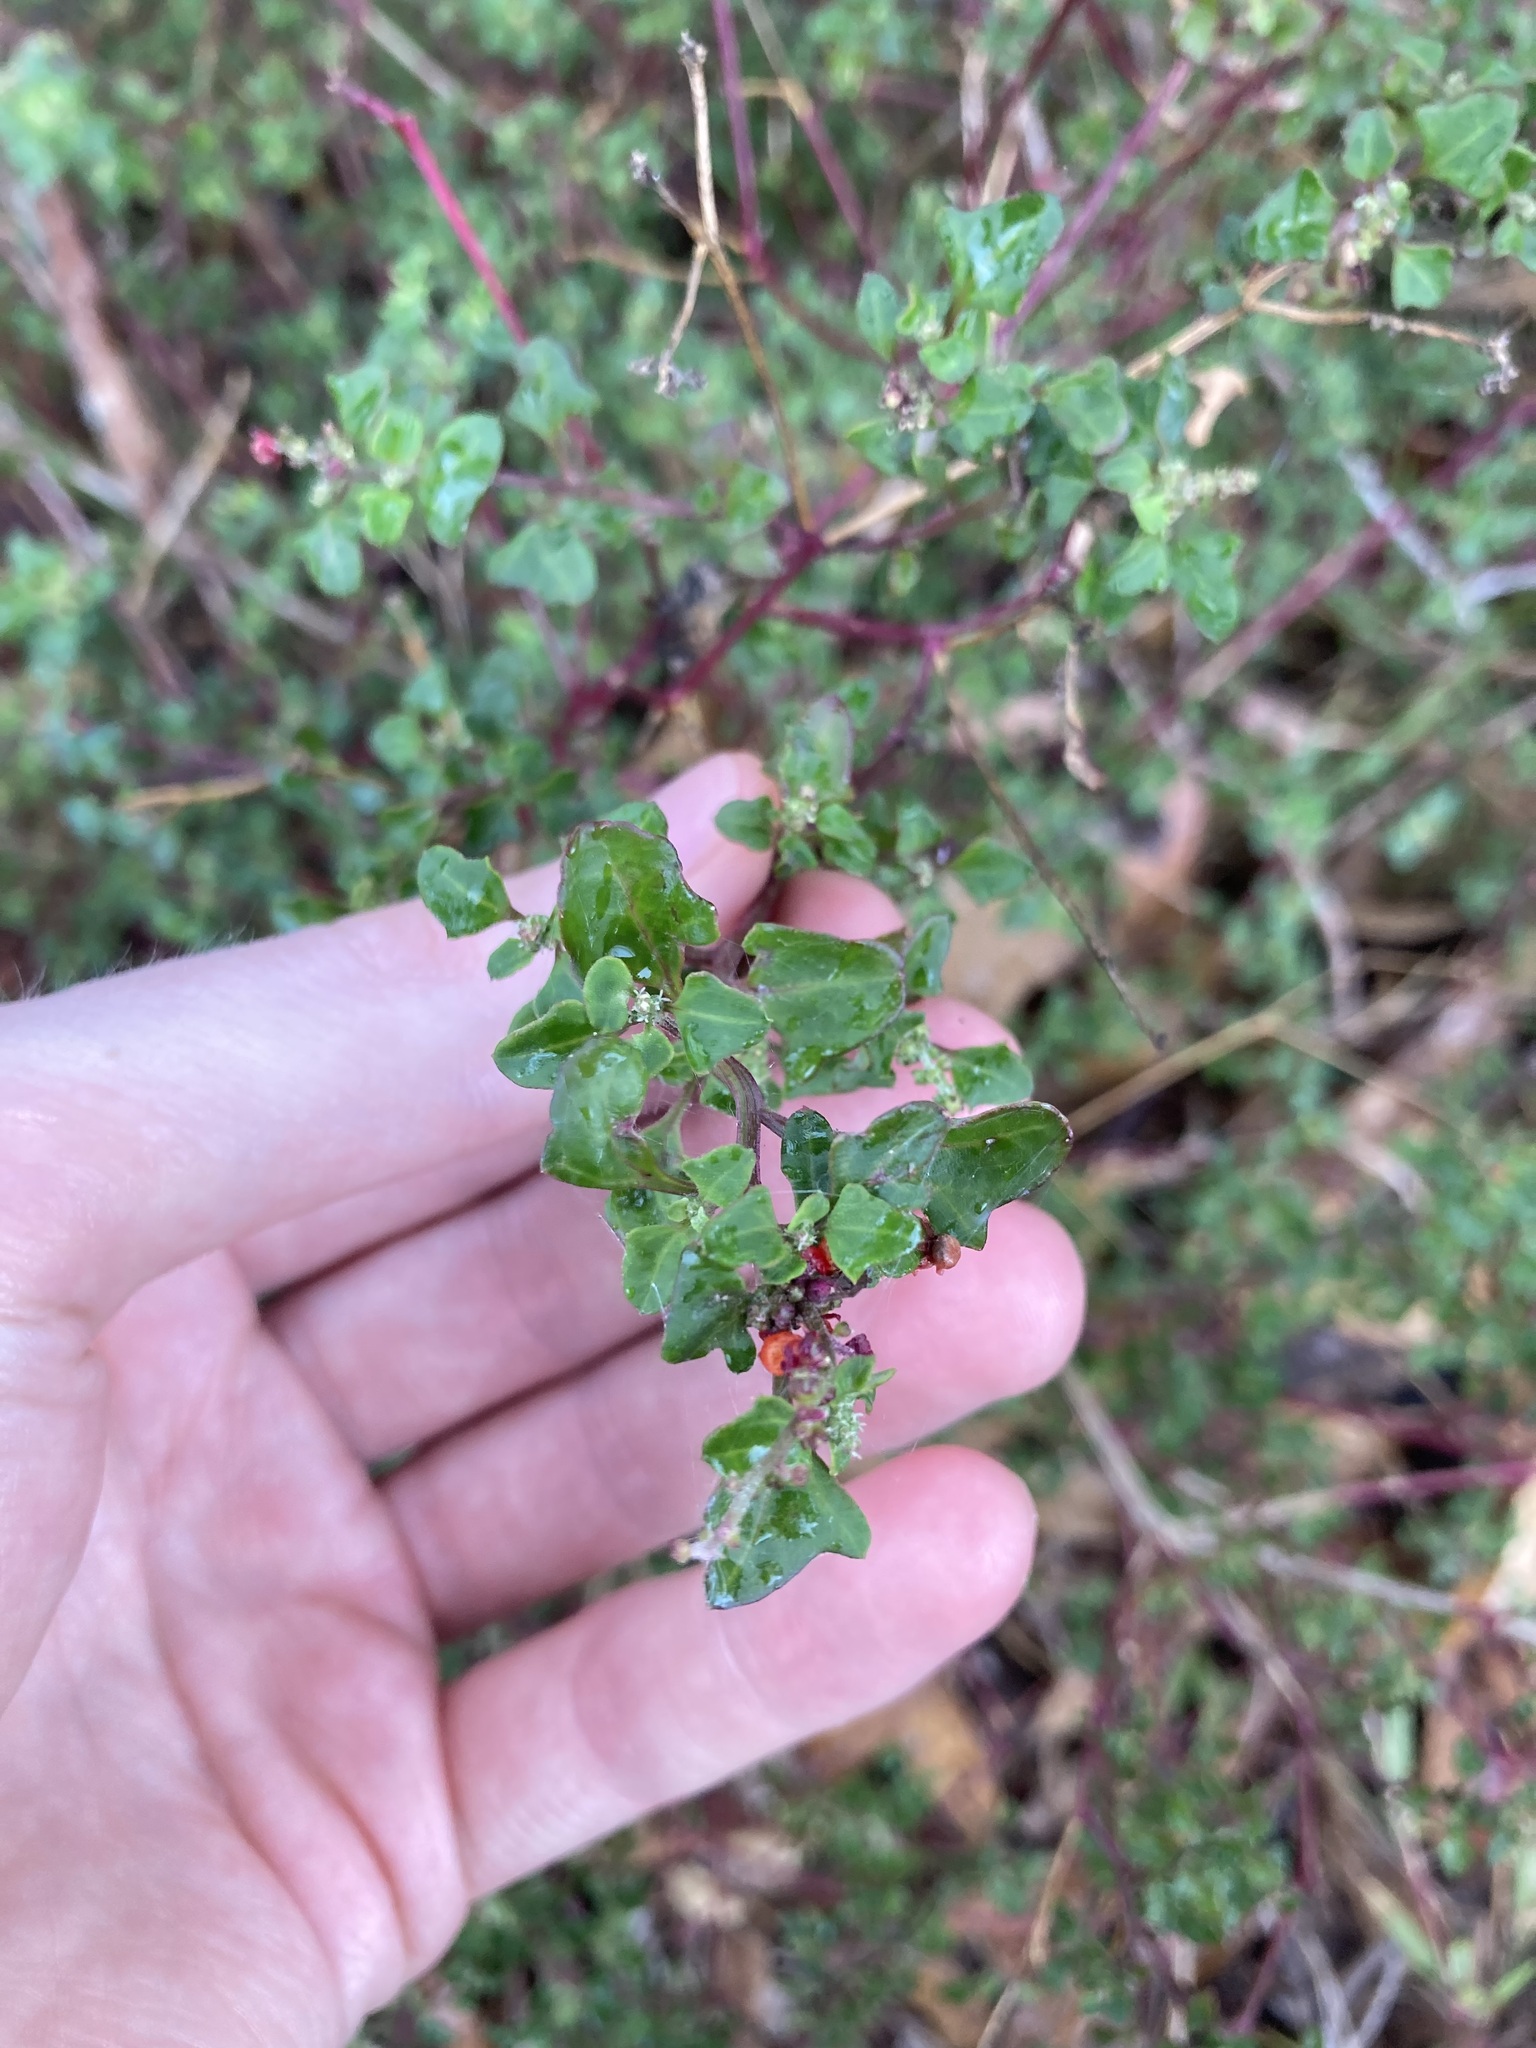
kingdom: Plantae
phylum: Tracheophyta
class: Magnoliopsida
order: Caryophyllales
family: Amaranthaceae
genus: Chenopodium
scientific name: Chenopodium robertianum
